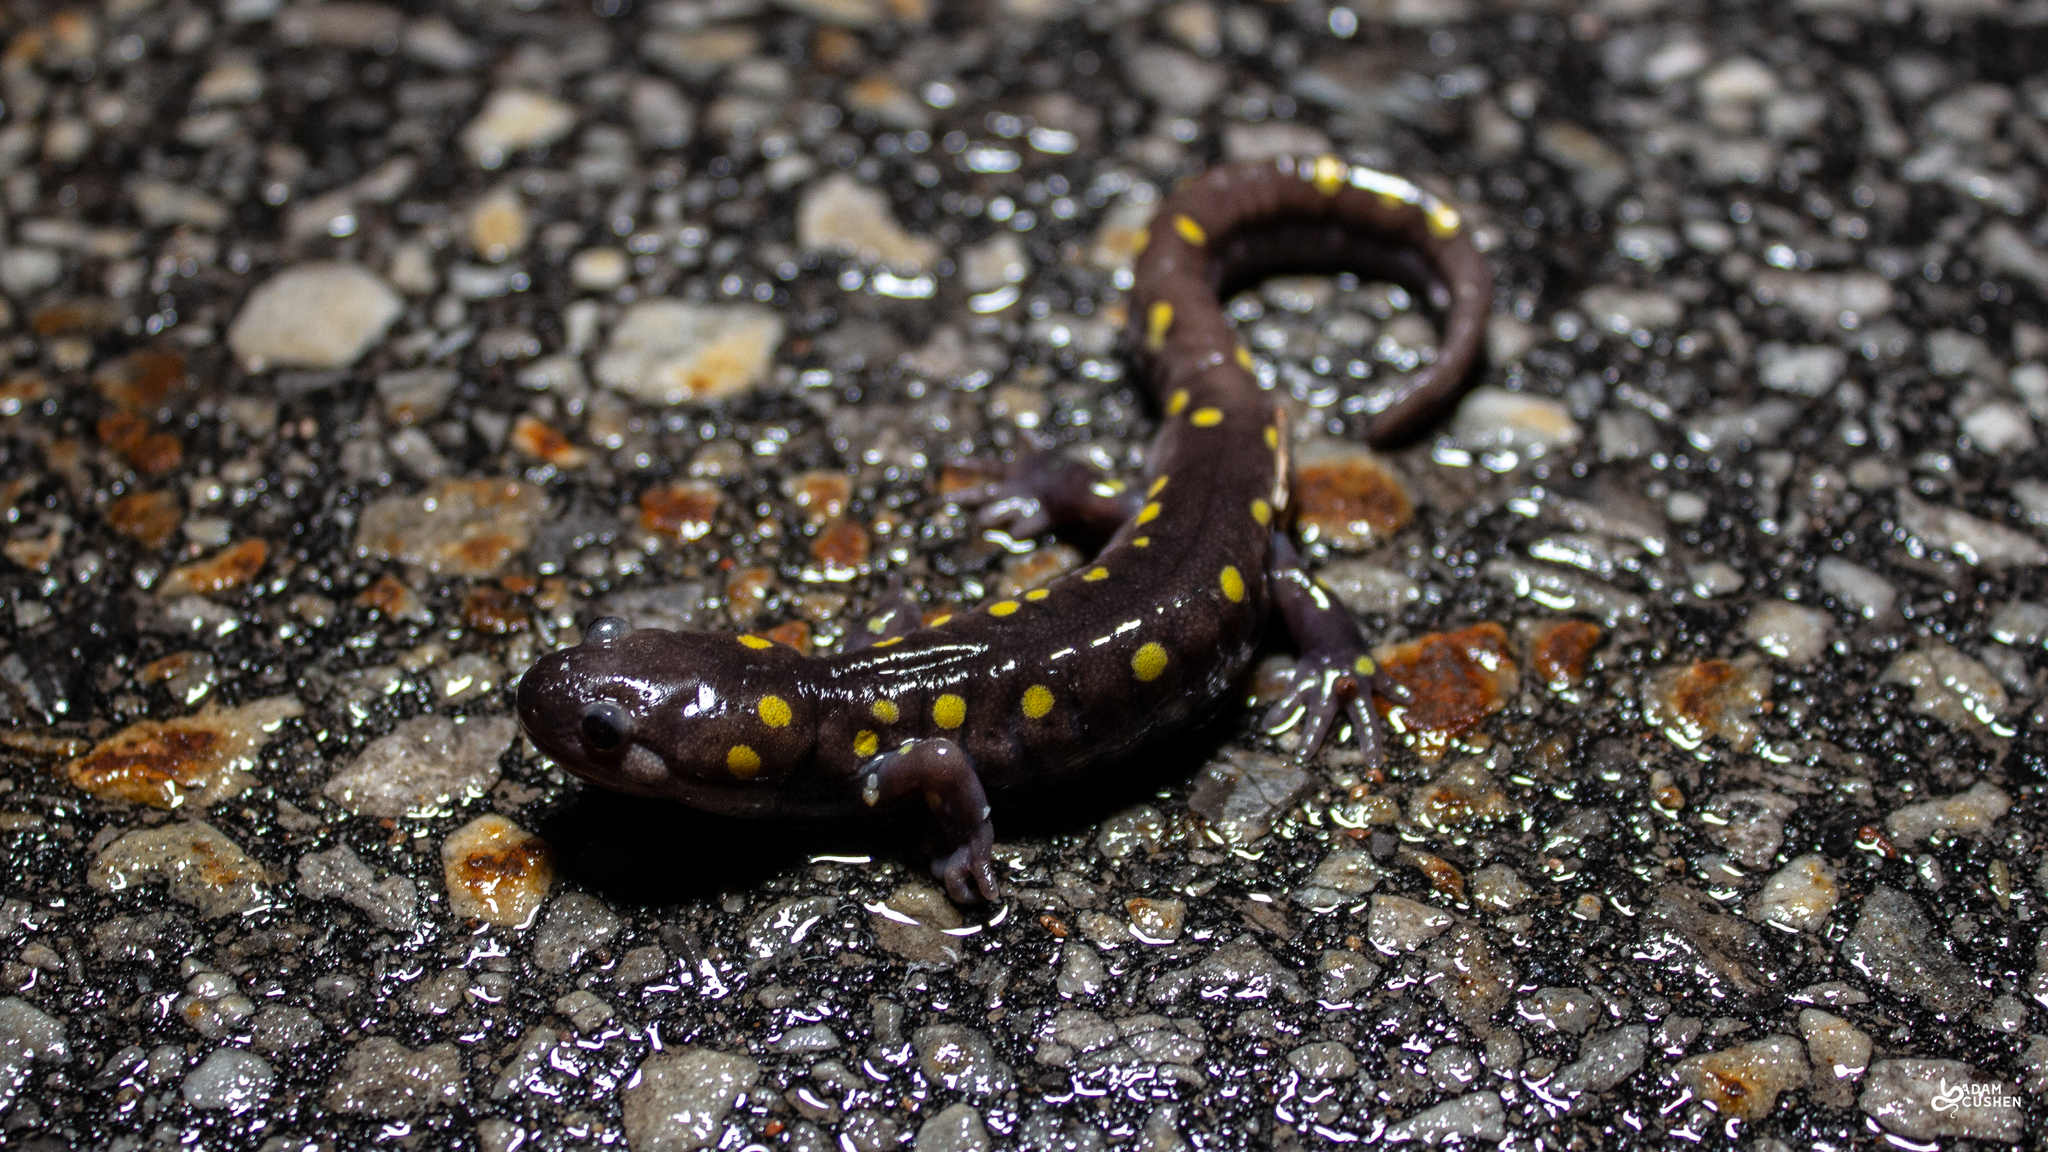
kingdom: Animalia
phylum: Chordata
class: Amphibia
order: Caudata
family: Ambystomatidae
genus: Ambystoma
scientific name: Ambystoma maculatum
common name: Spotted salamander
